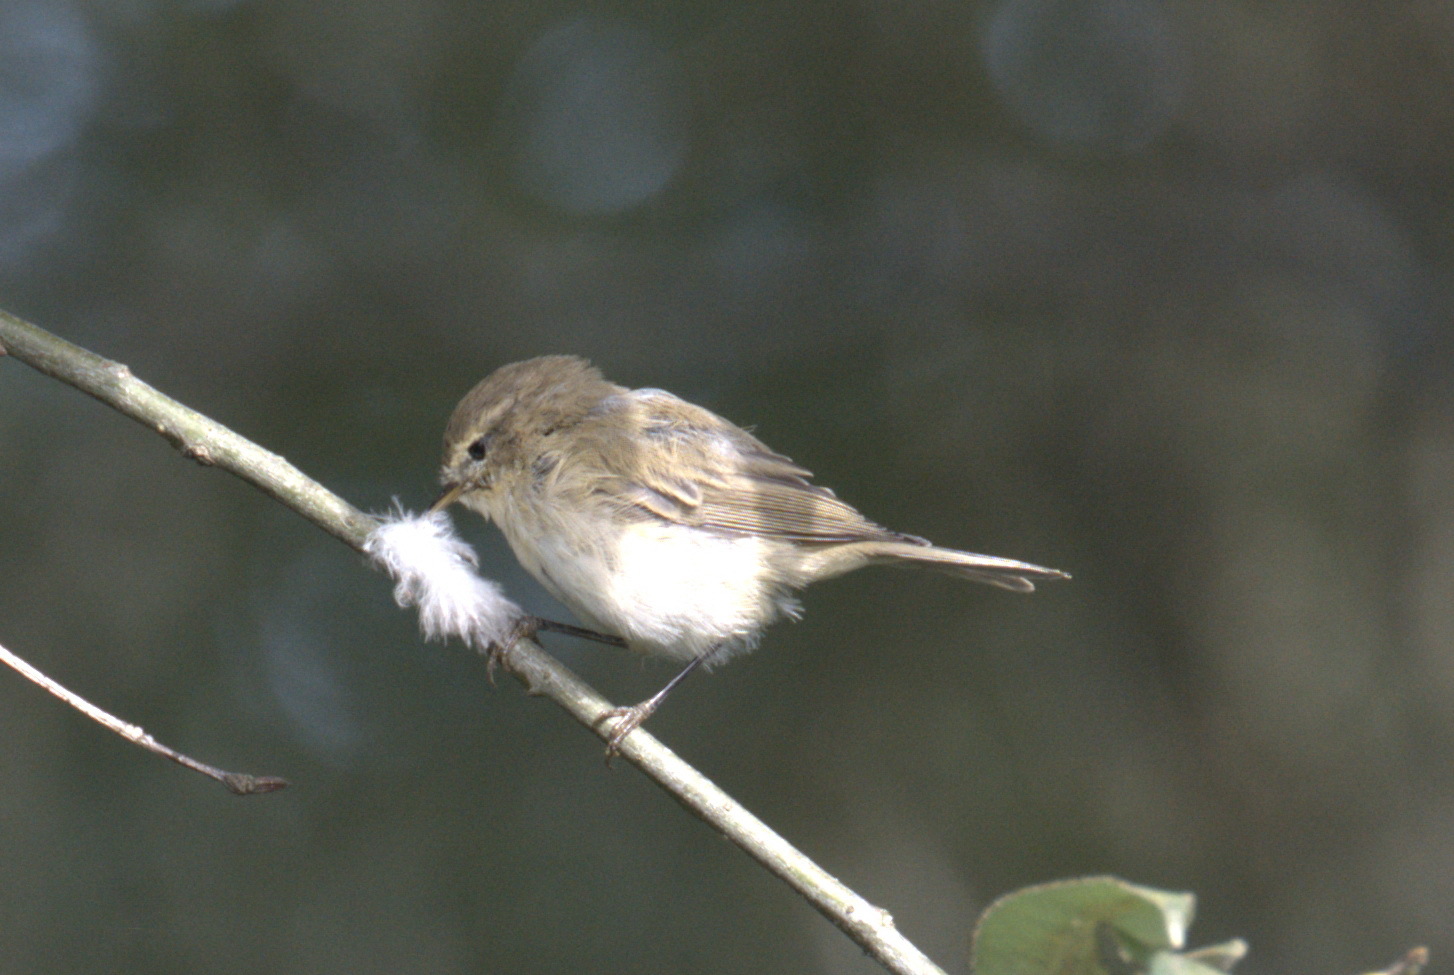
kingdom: Animalia
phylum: Chordata
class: Aves
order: Passeriformes
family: Phylloscopidae
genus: Phylloscopus
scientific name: Phylloscopus collybita
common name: Common chiffchaff
